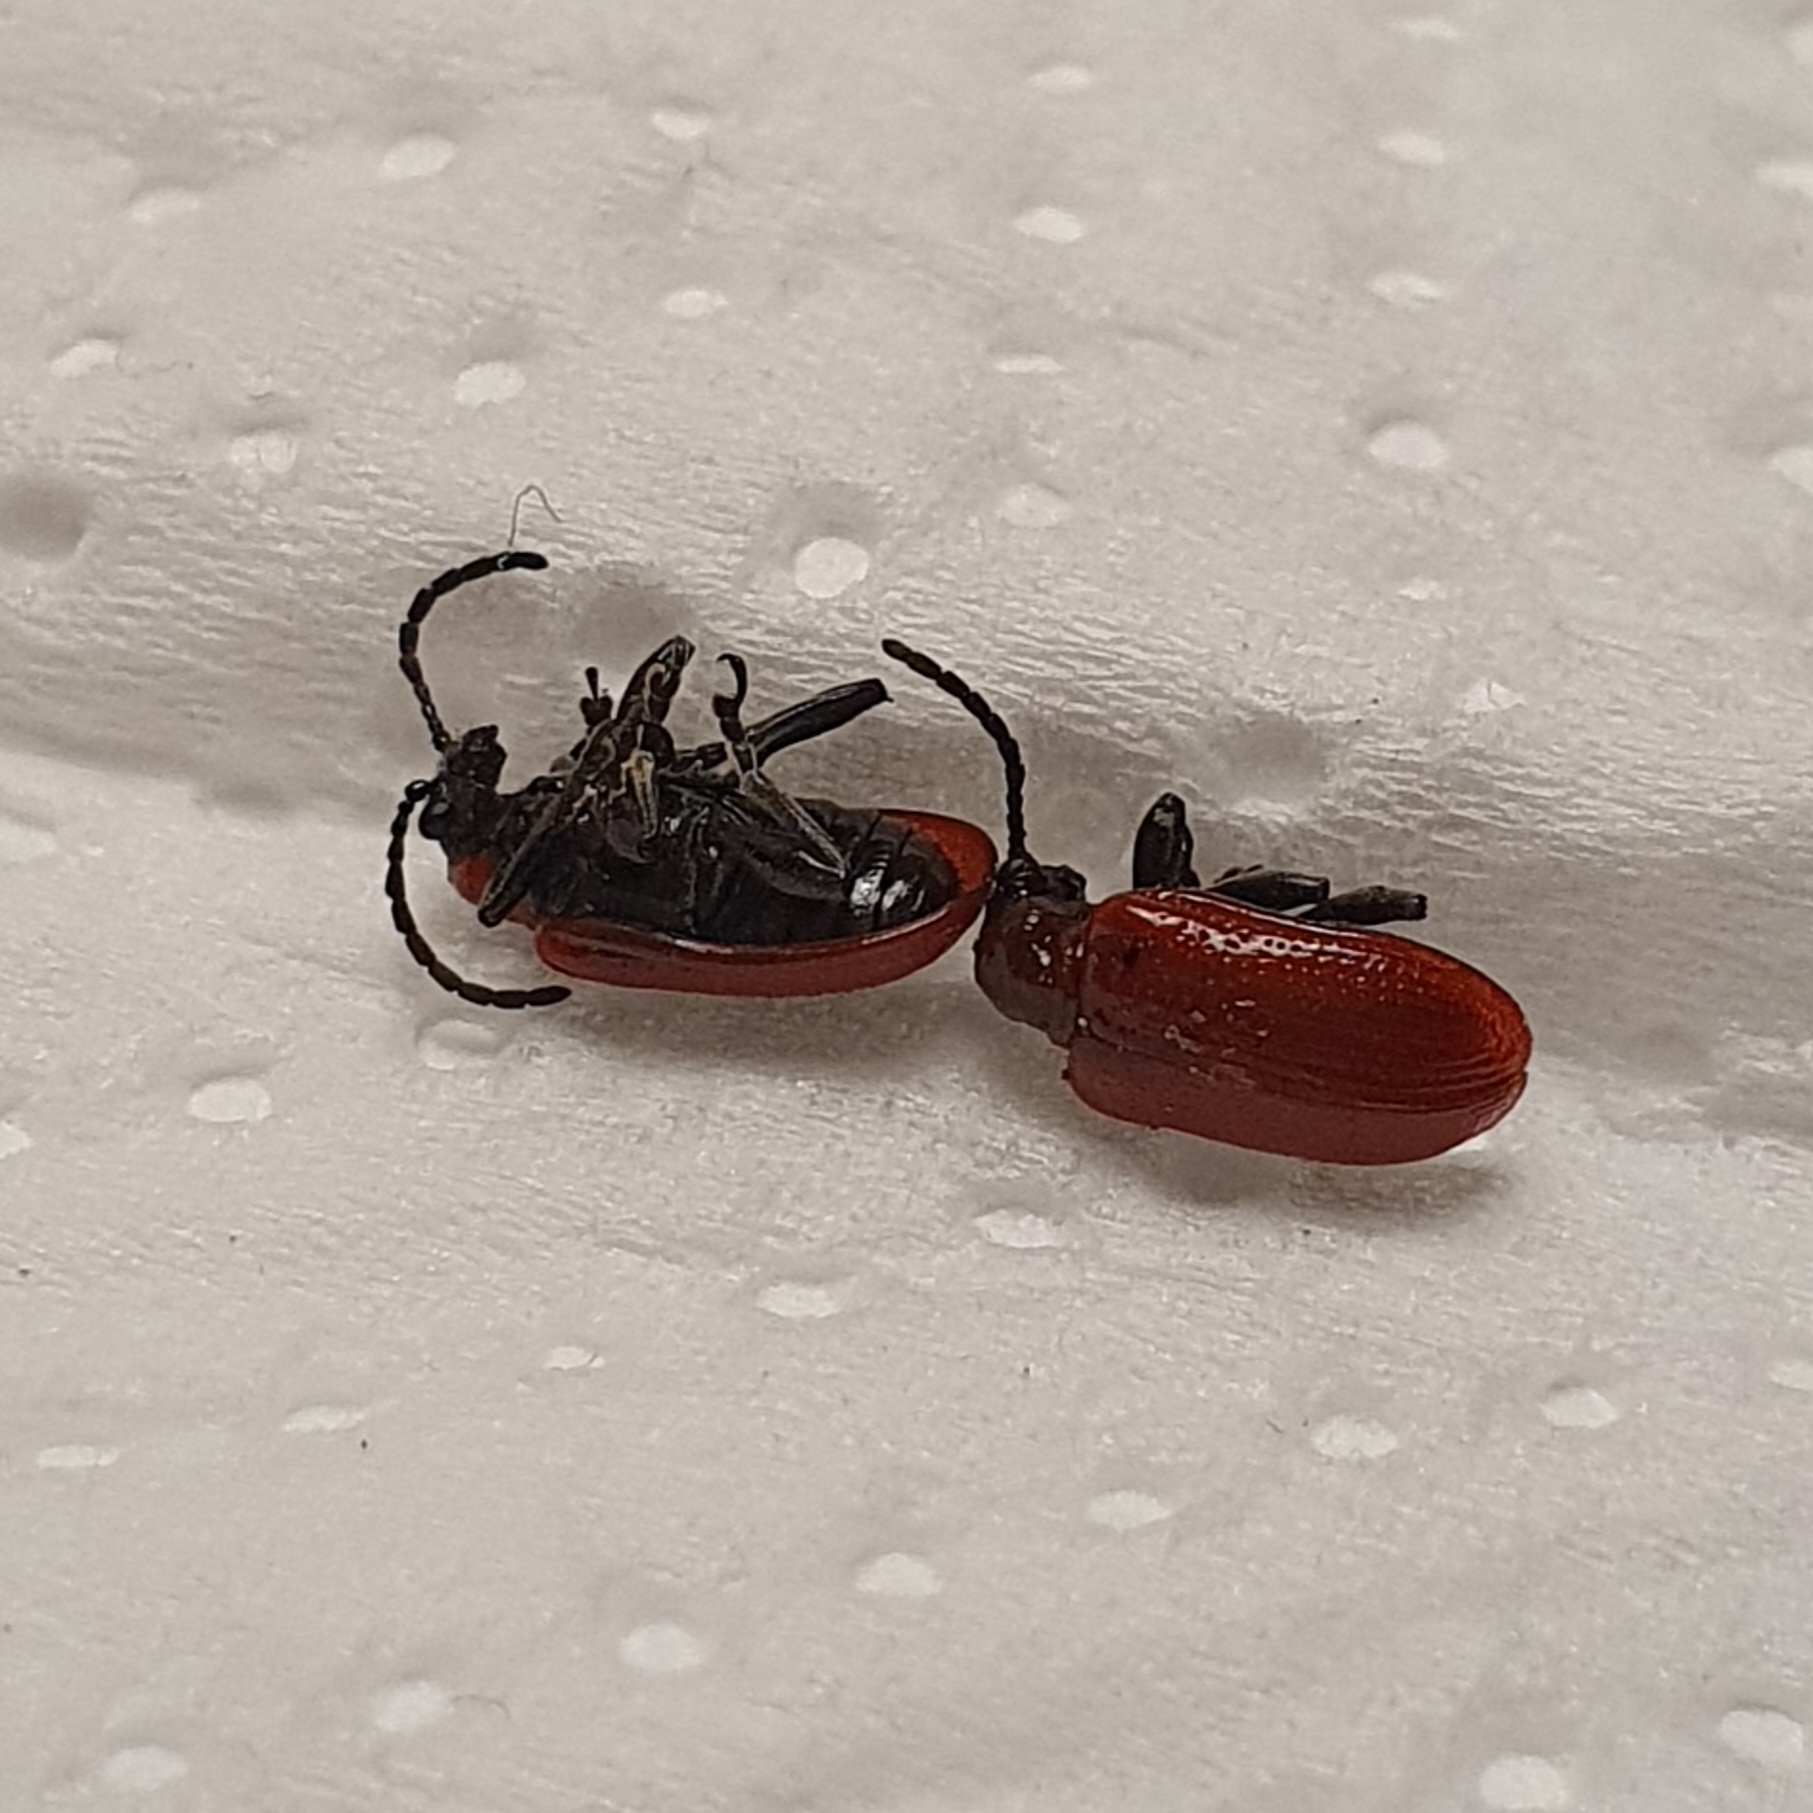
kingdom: Animalia
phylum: Arthropoda
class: Insecta
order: Coleoptera
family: Chrysomelidae
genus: Lilioceris
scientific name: Lilioceris lilii
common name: Lily beetle
